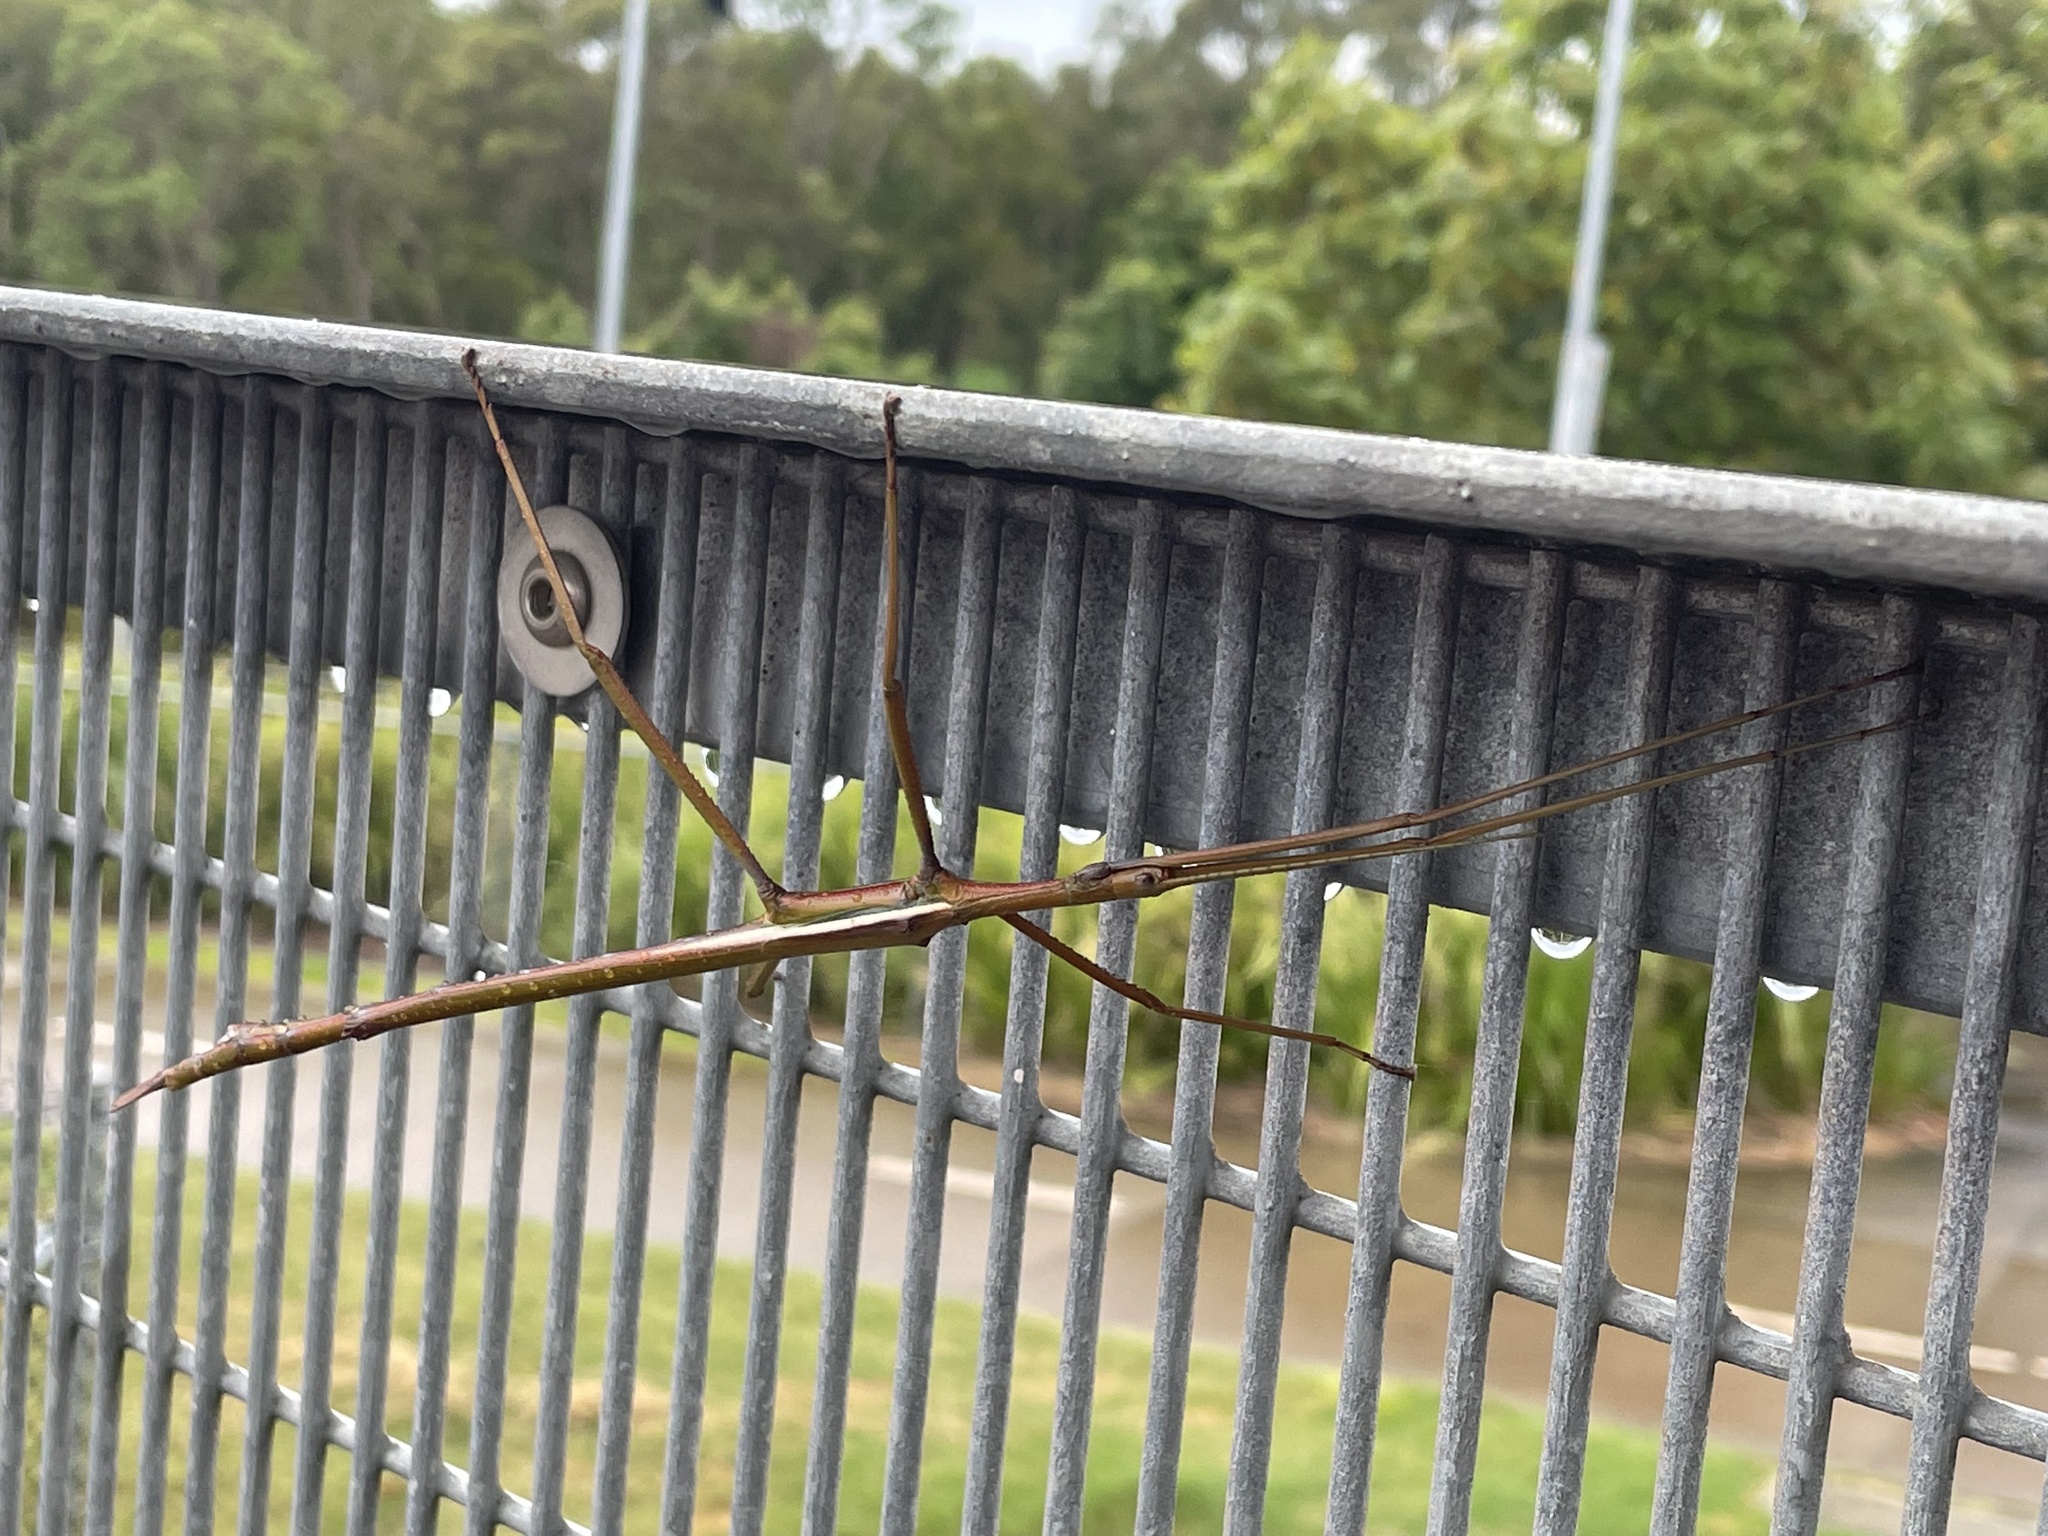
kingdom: Animalia
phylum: Arthropoda
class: Insecta
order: Phasmida
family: Phasmatidae
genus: Tropidoderus
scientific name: Tropidoderus childrenii
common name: Children's stick insect
